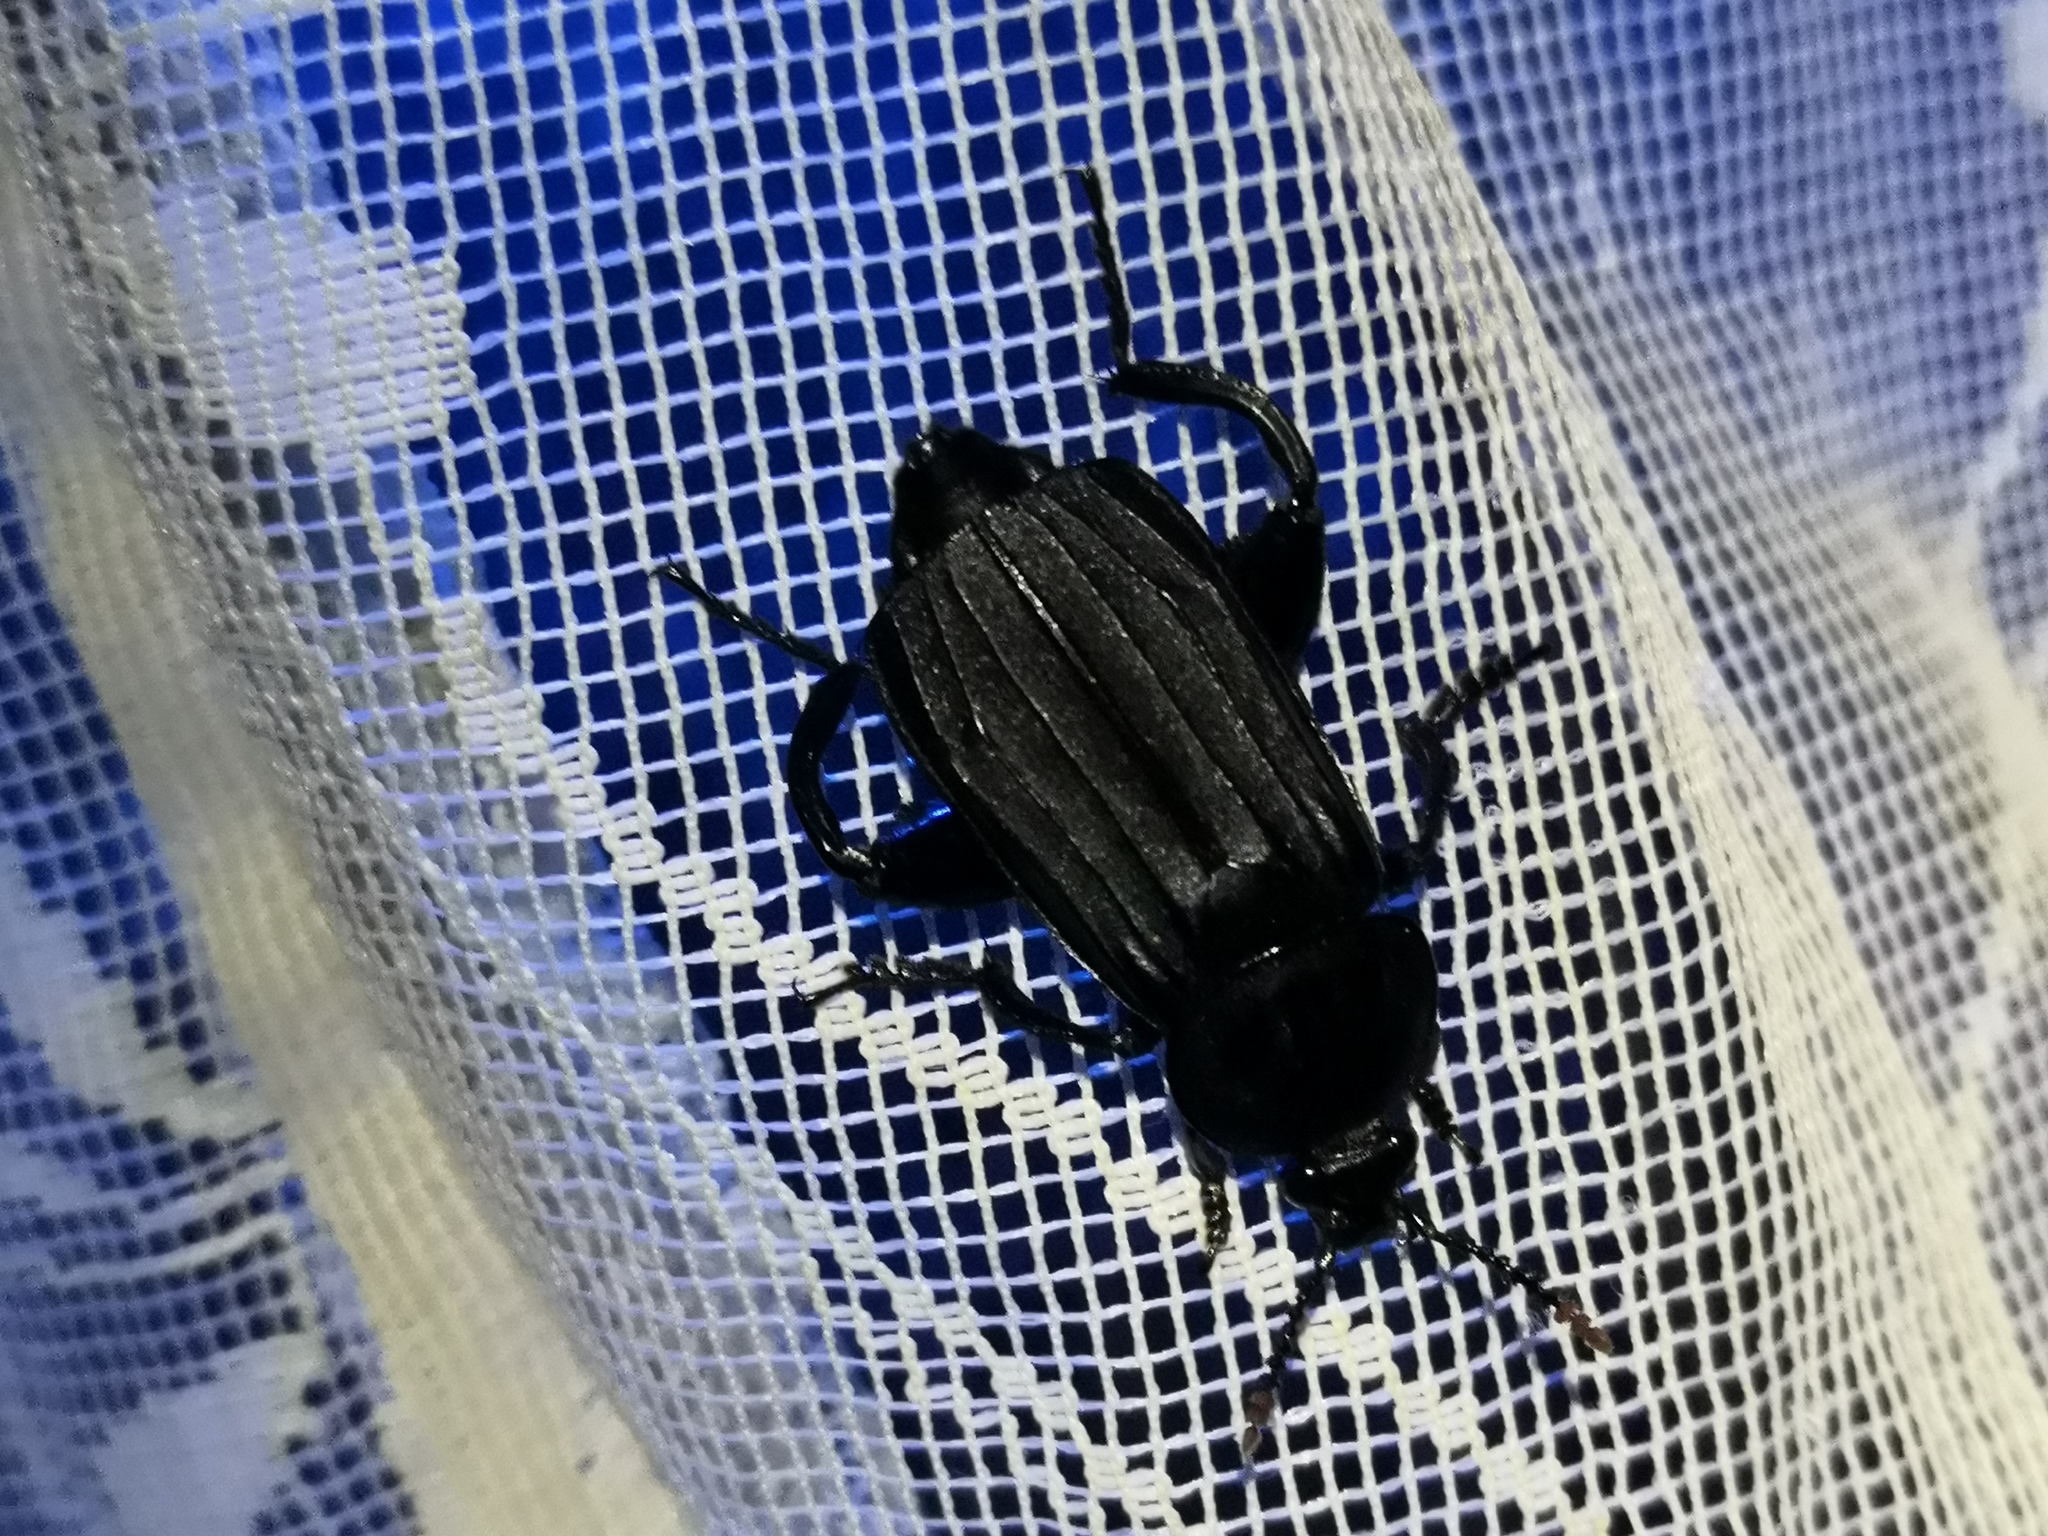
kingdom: Animalia
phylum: Arthropoda
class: Insecta
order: Coleoptera
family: Staphylinidae
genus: Necrodes
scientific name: Necrodes littoralis
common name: Shore sexton beetle
